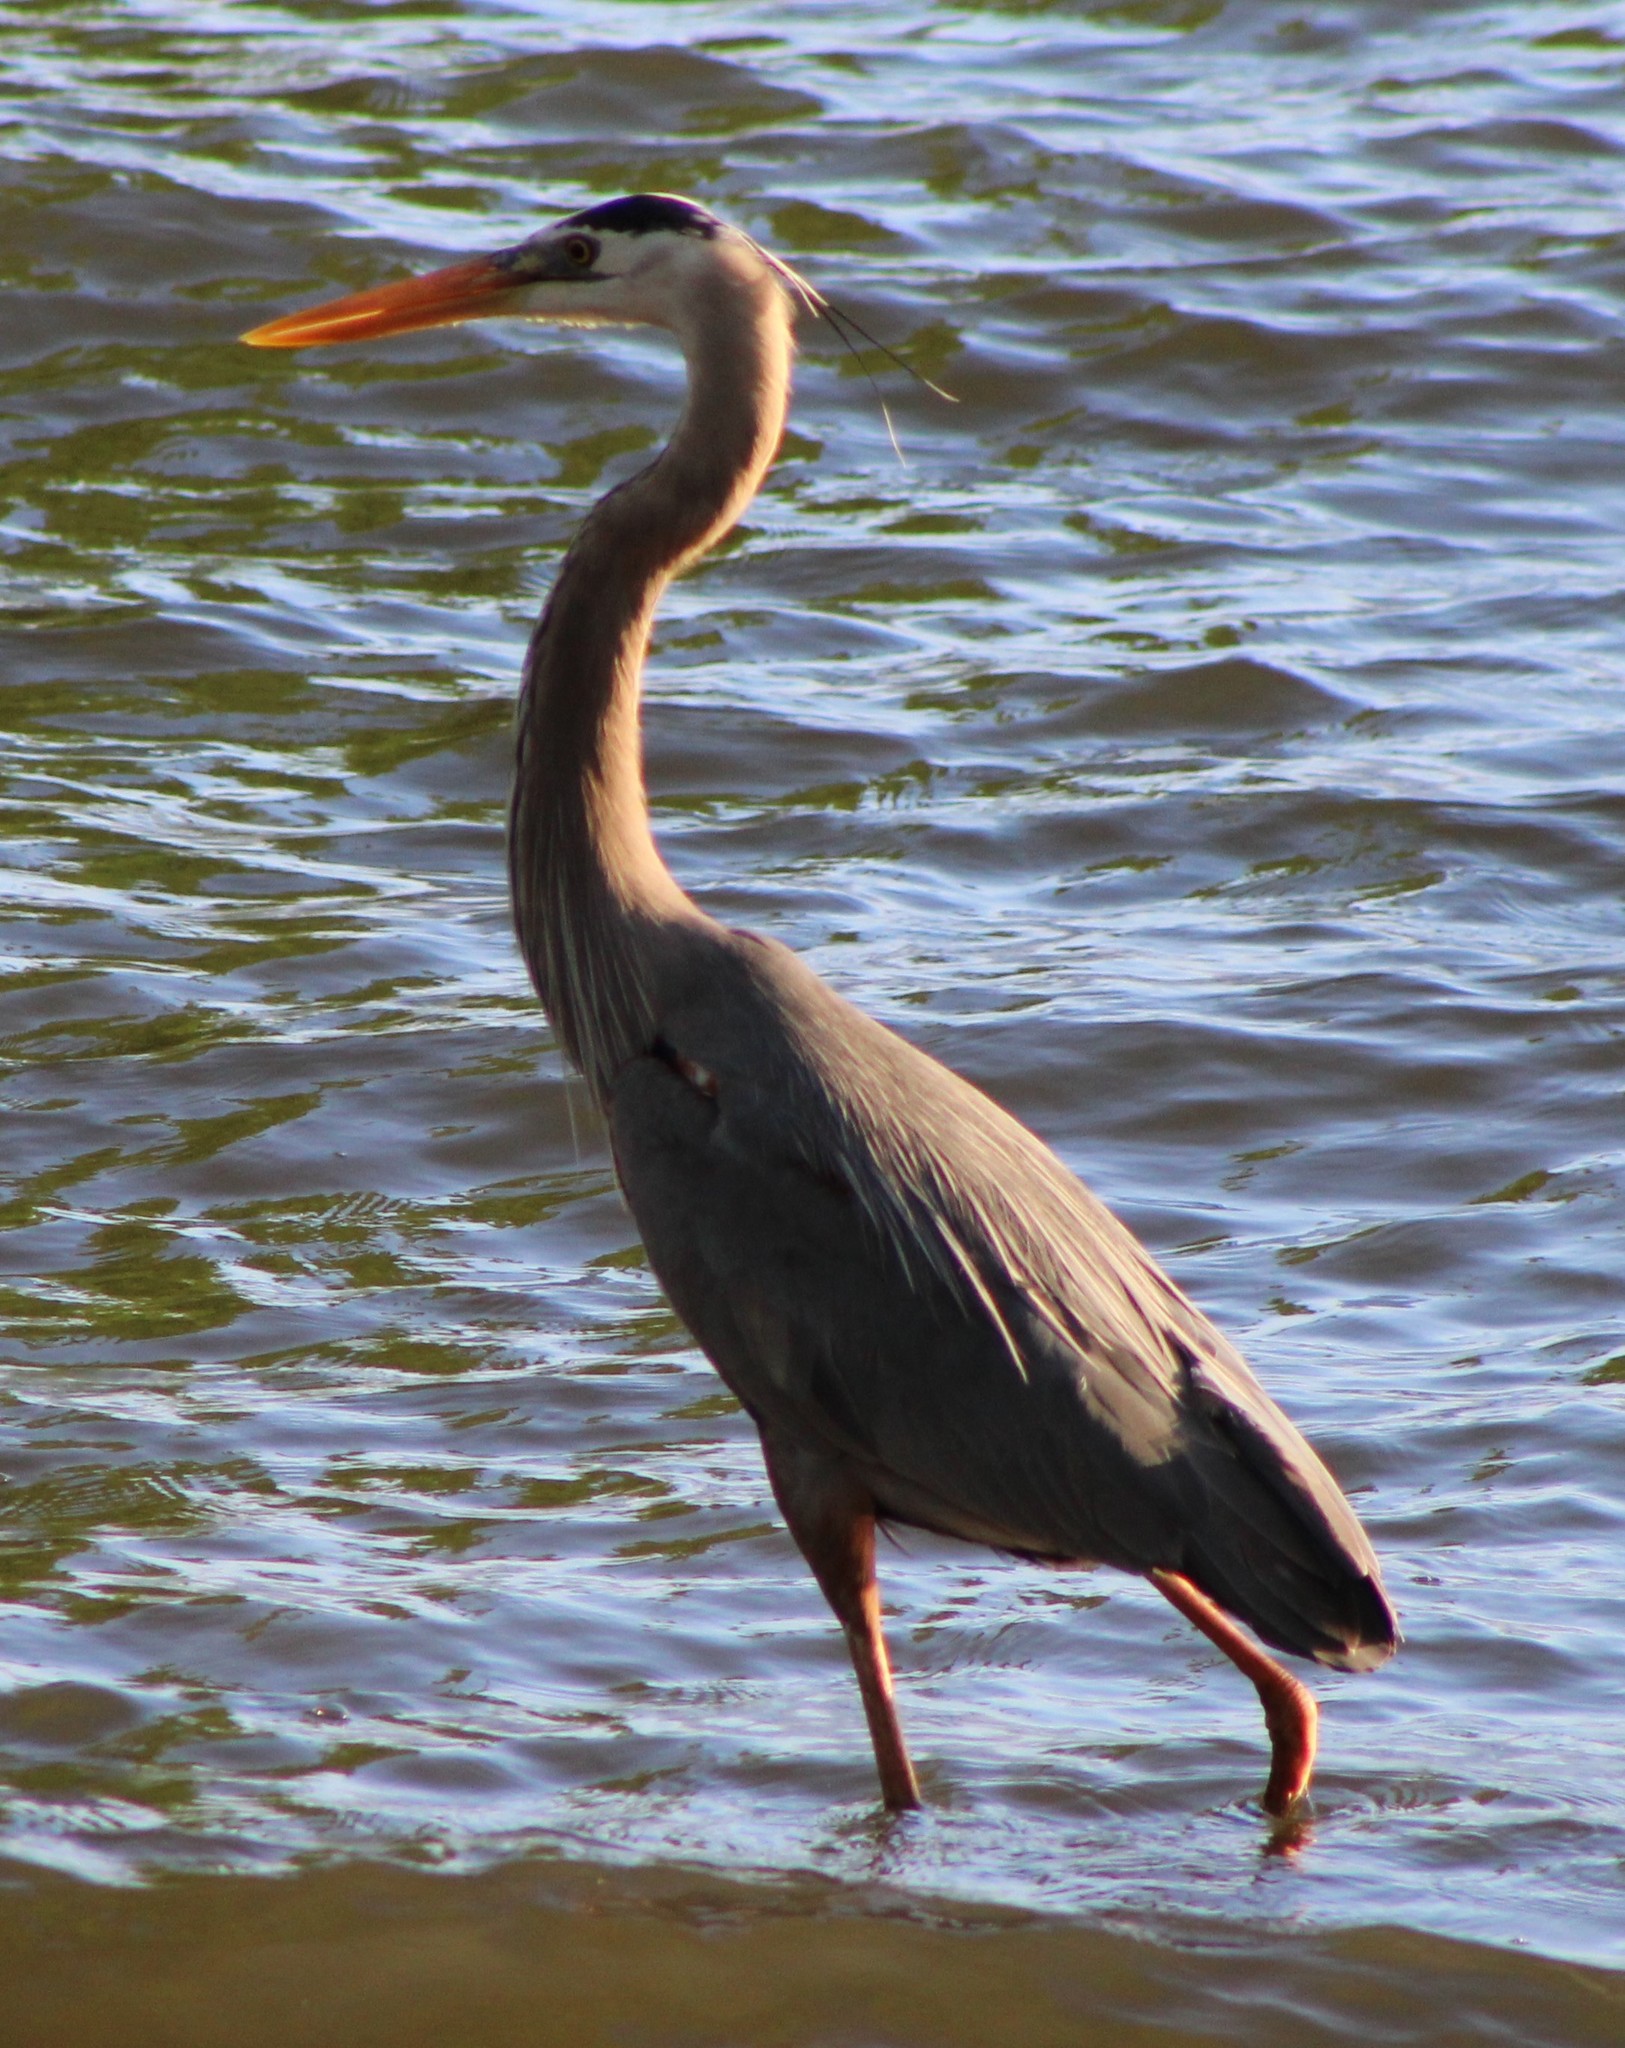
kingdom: Animalia
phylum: Chordata
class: Aves
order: Pelecaniformes
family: Ardeidae
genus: Ardea
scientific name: Ardea herodias
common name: Great blue heron
